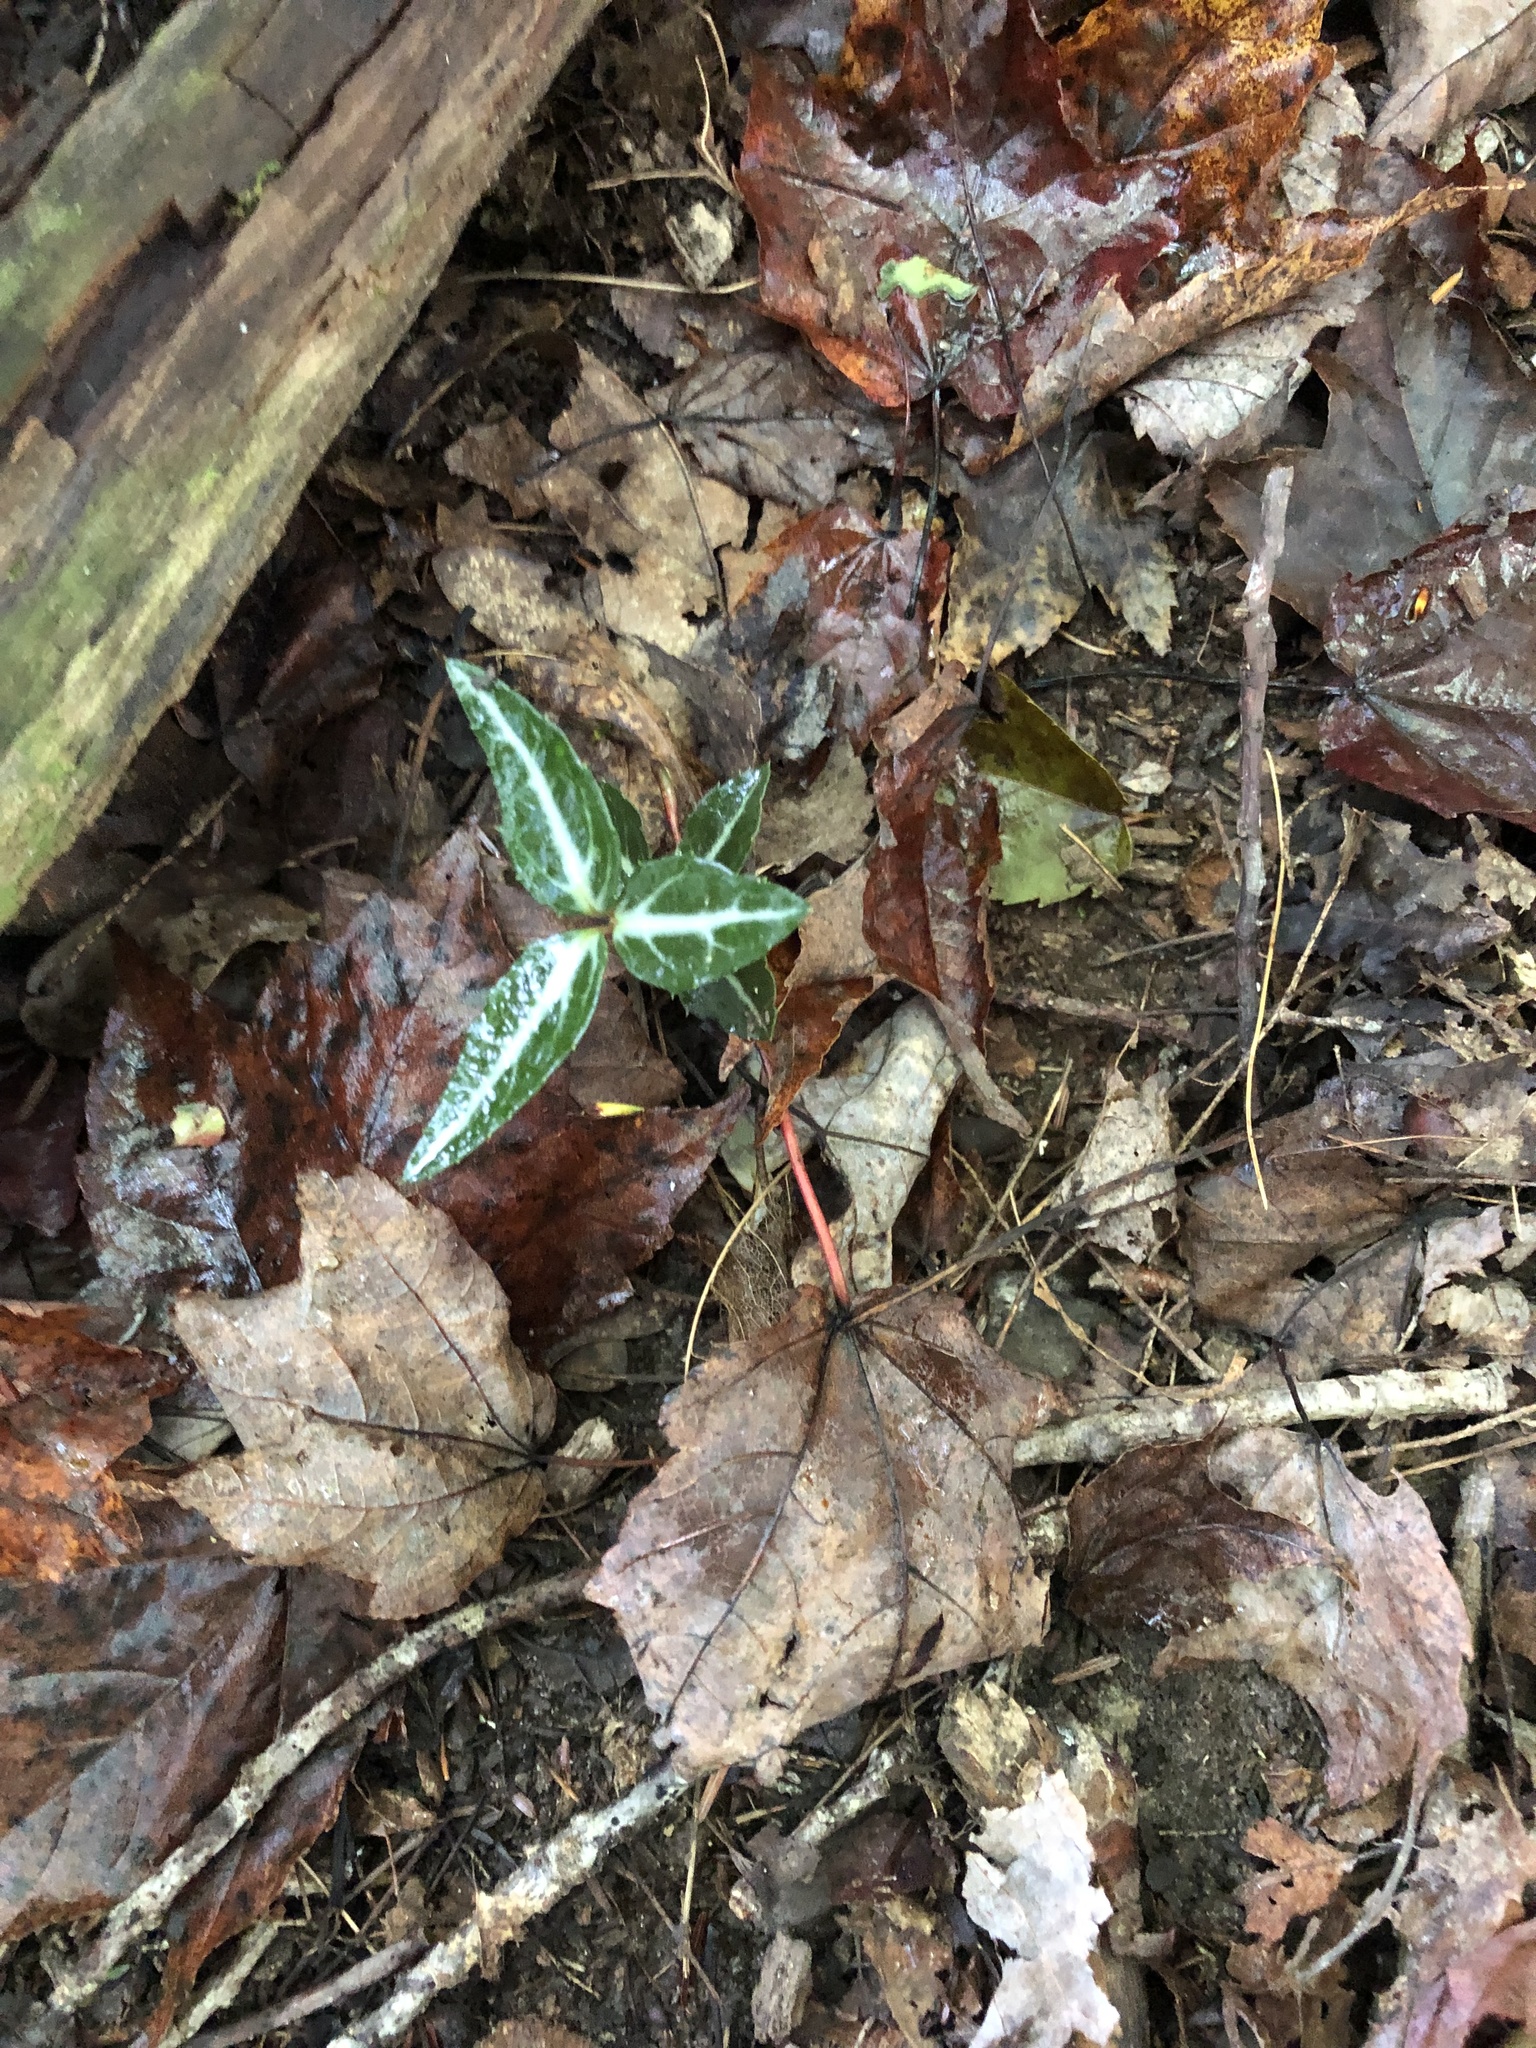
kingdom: Plantae
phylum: Tracheophyta
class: Magnoliopsida
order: Ericales
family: Ericaceae
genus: Chimaphila
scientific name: Chimaphila maculata
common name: Spotted pipsissewa
